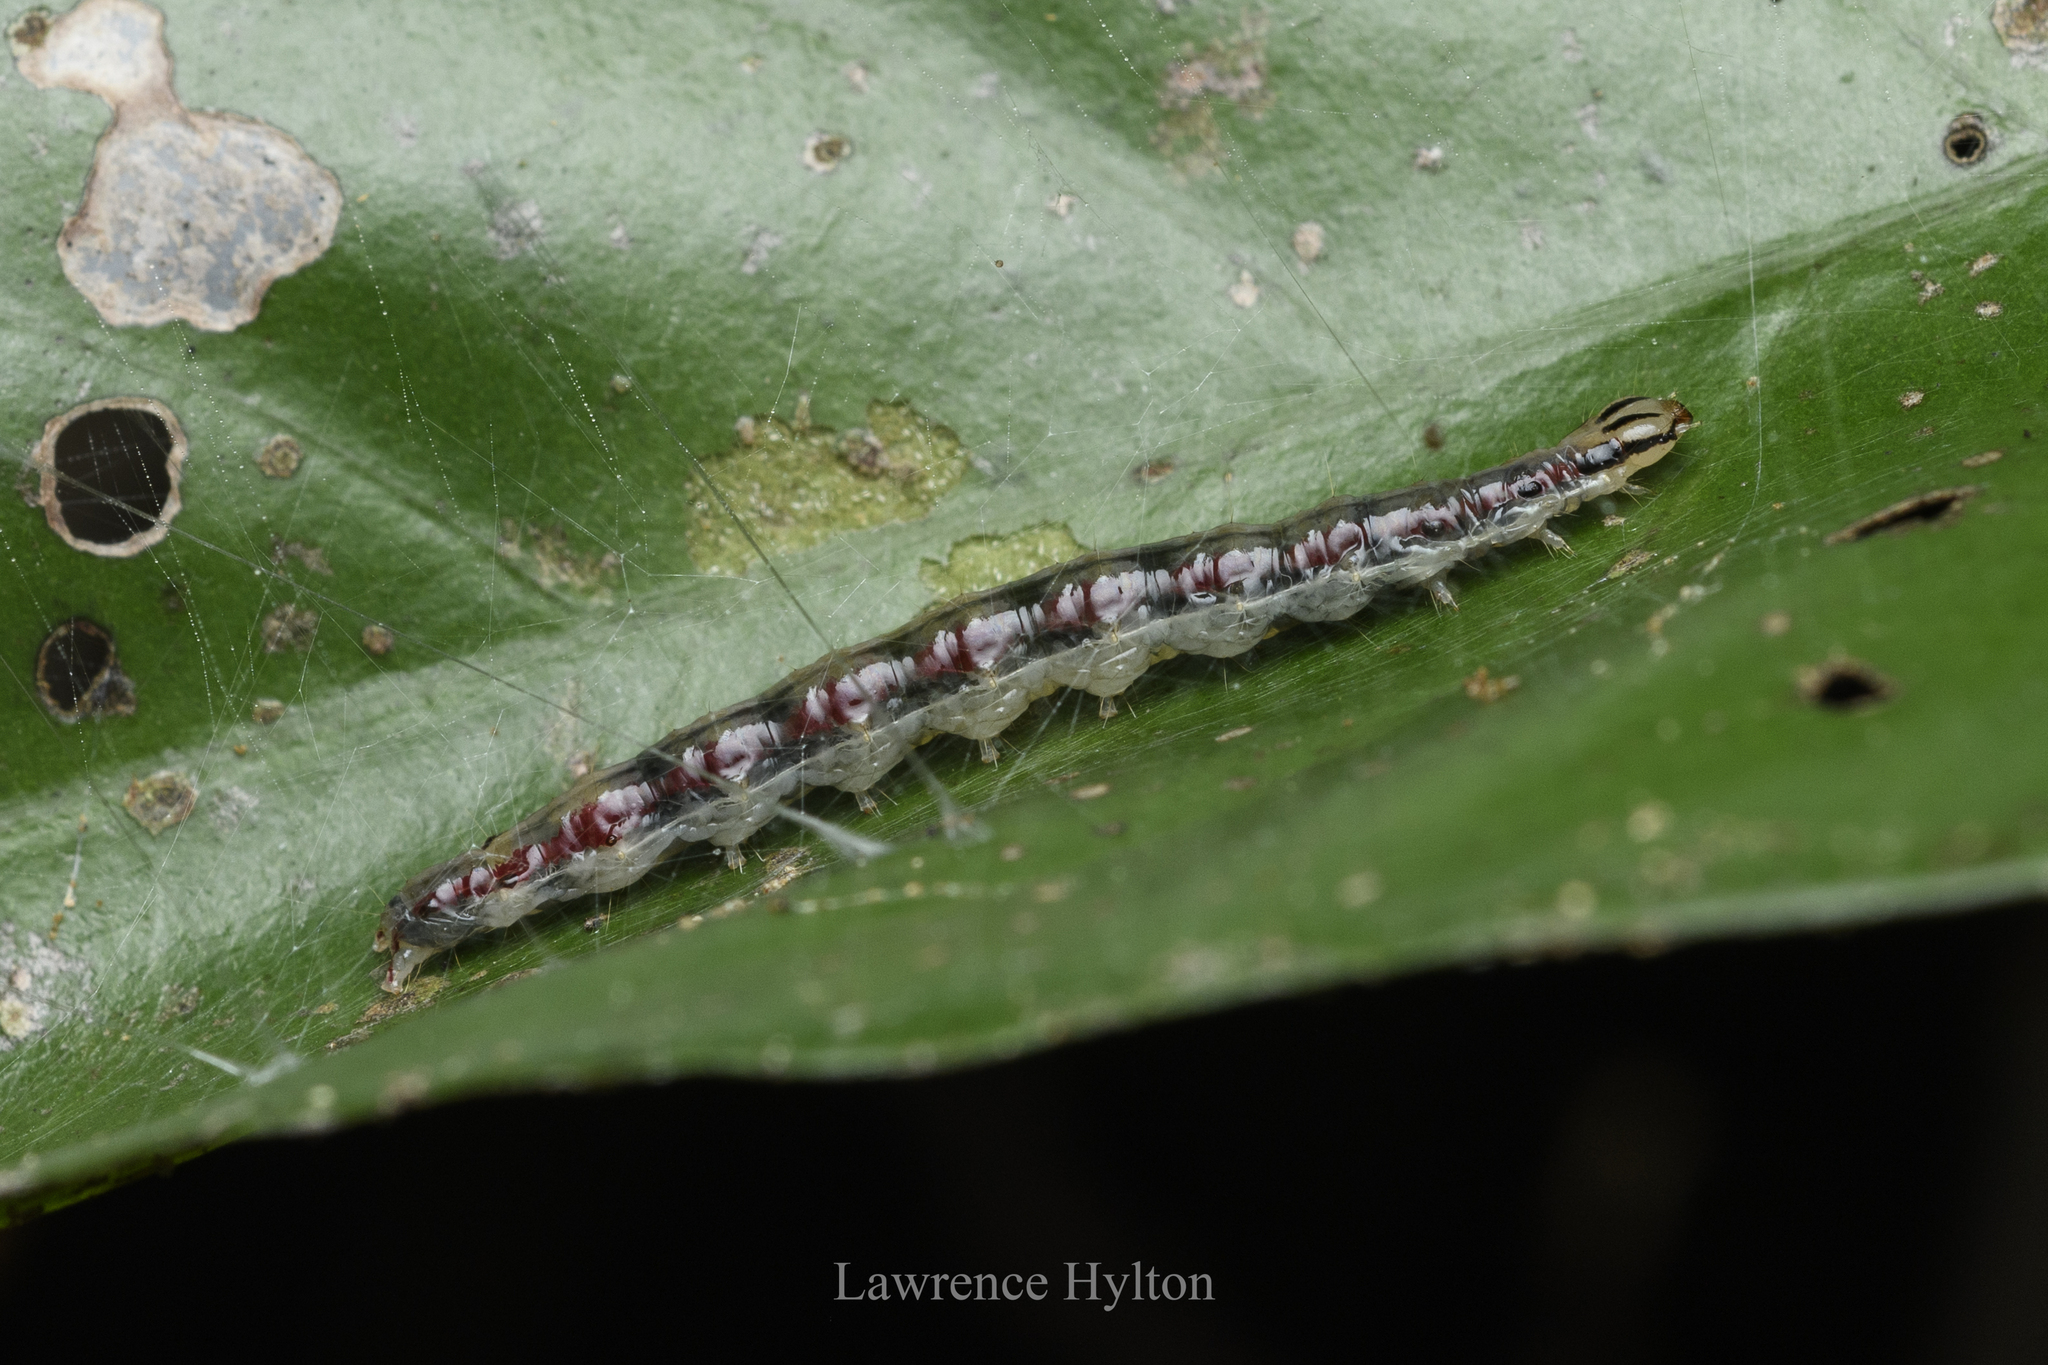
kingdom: Animalia
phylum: Arthropoda
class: Insecta
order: Lepidoptera
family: Crambidae
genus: Lamprosema
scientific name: Lamprosema tristrialis
